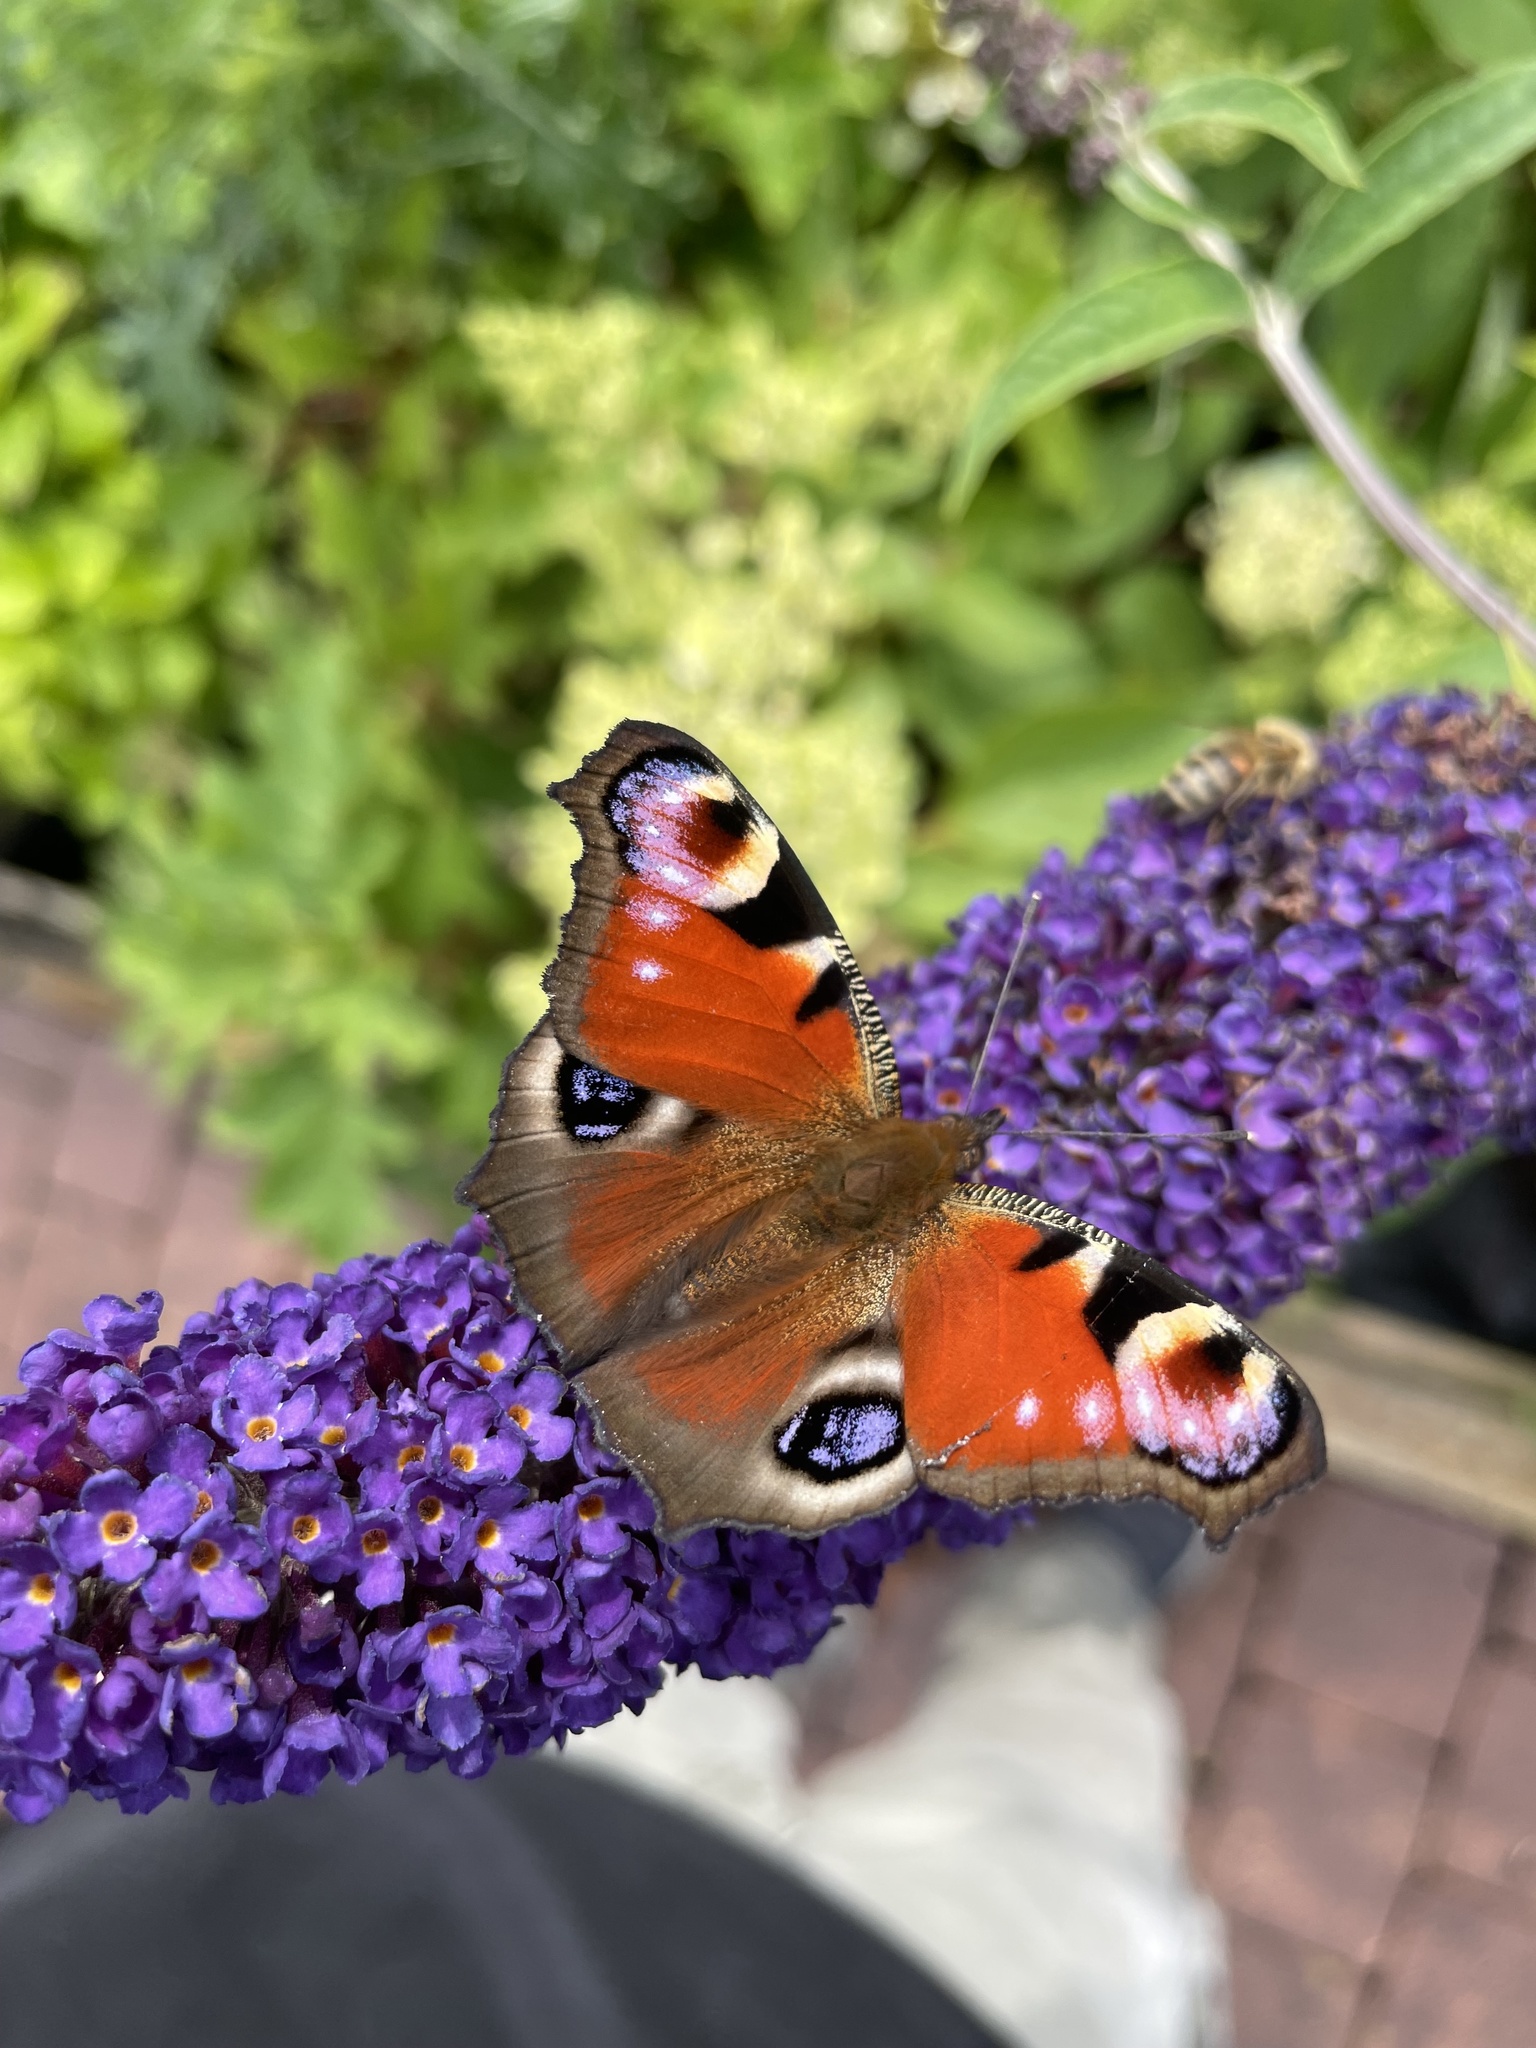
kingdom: Animalia
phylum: Arthropoda
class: Insecta
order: Lepidoptera
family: Nymphalidae
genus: Aglais
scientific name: Aglais io
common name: Peacock
